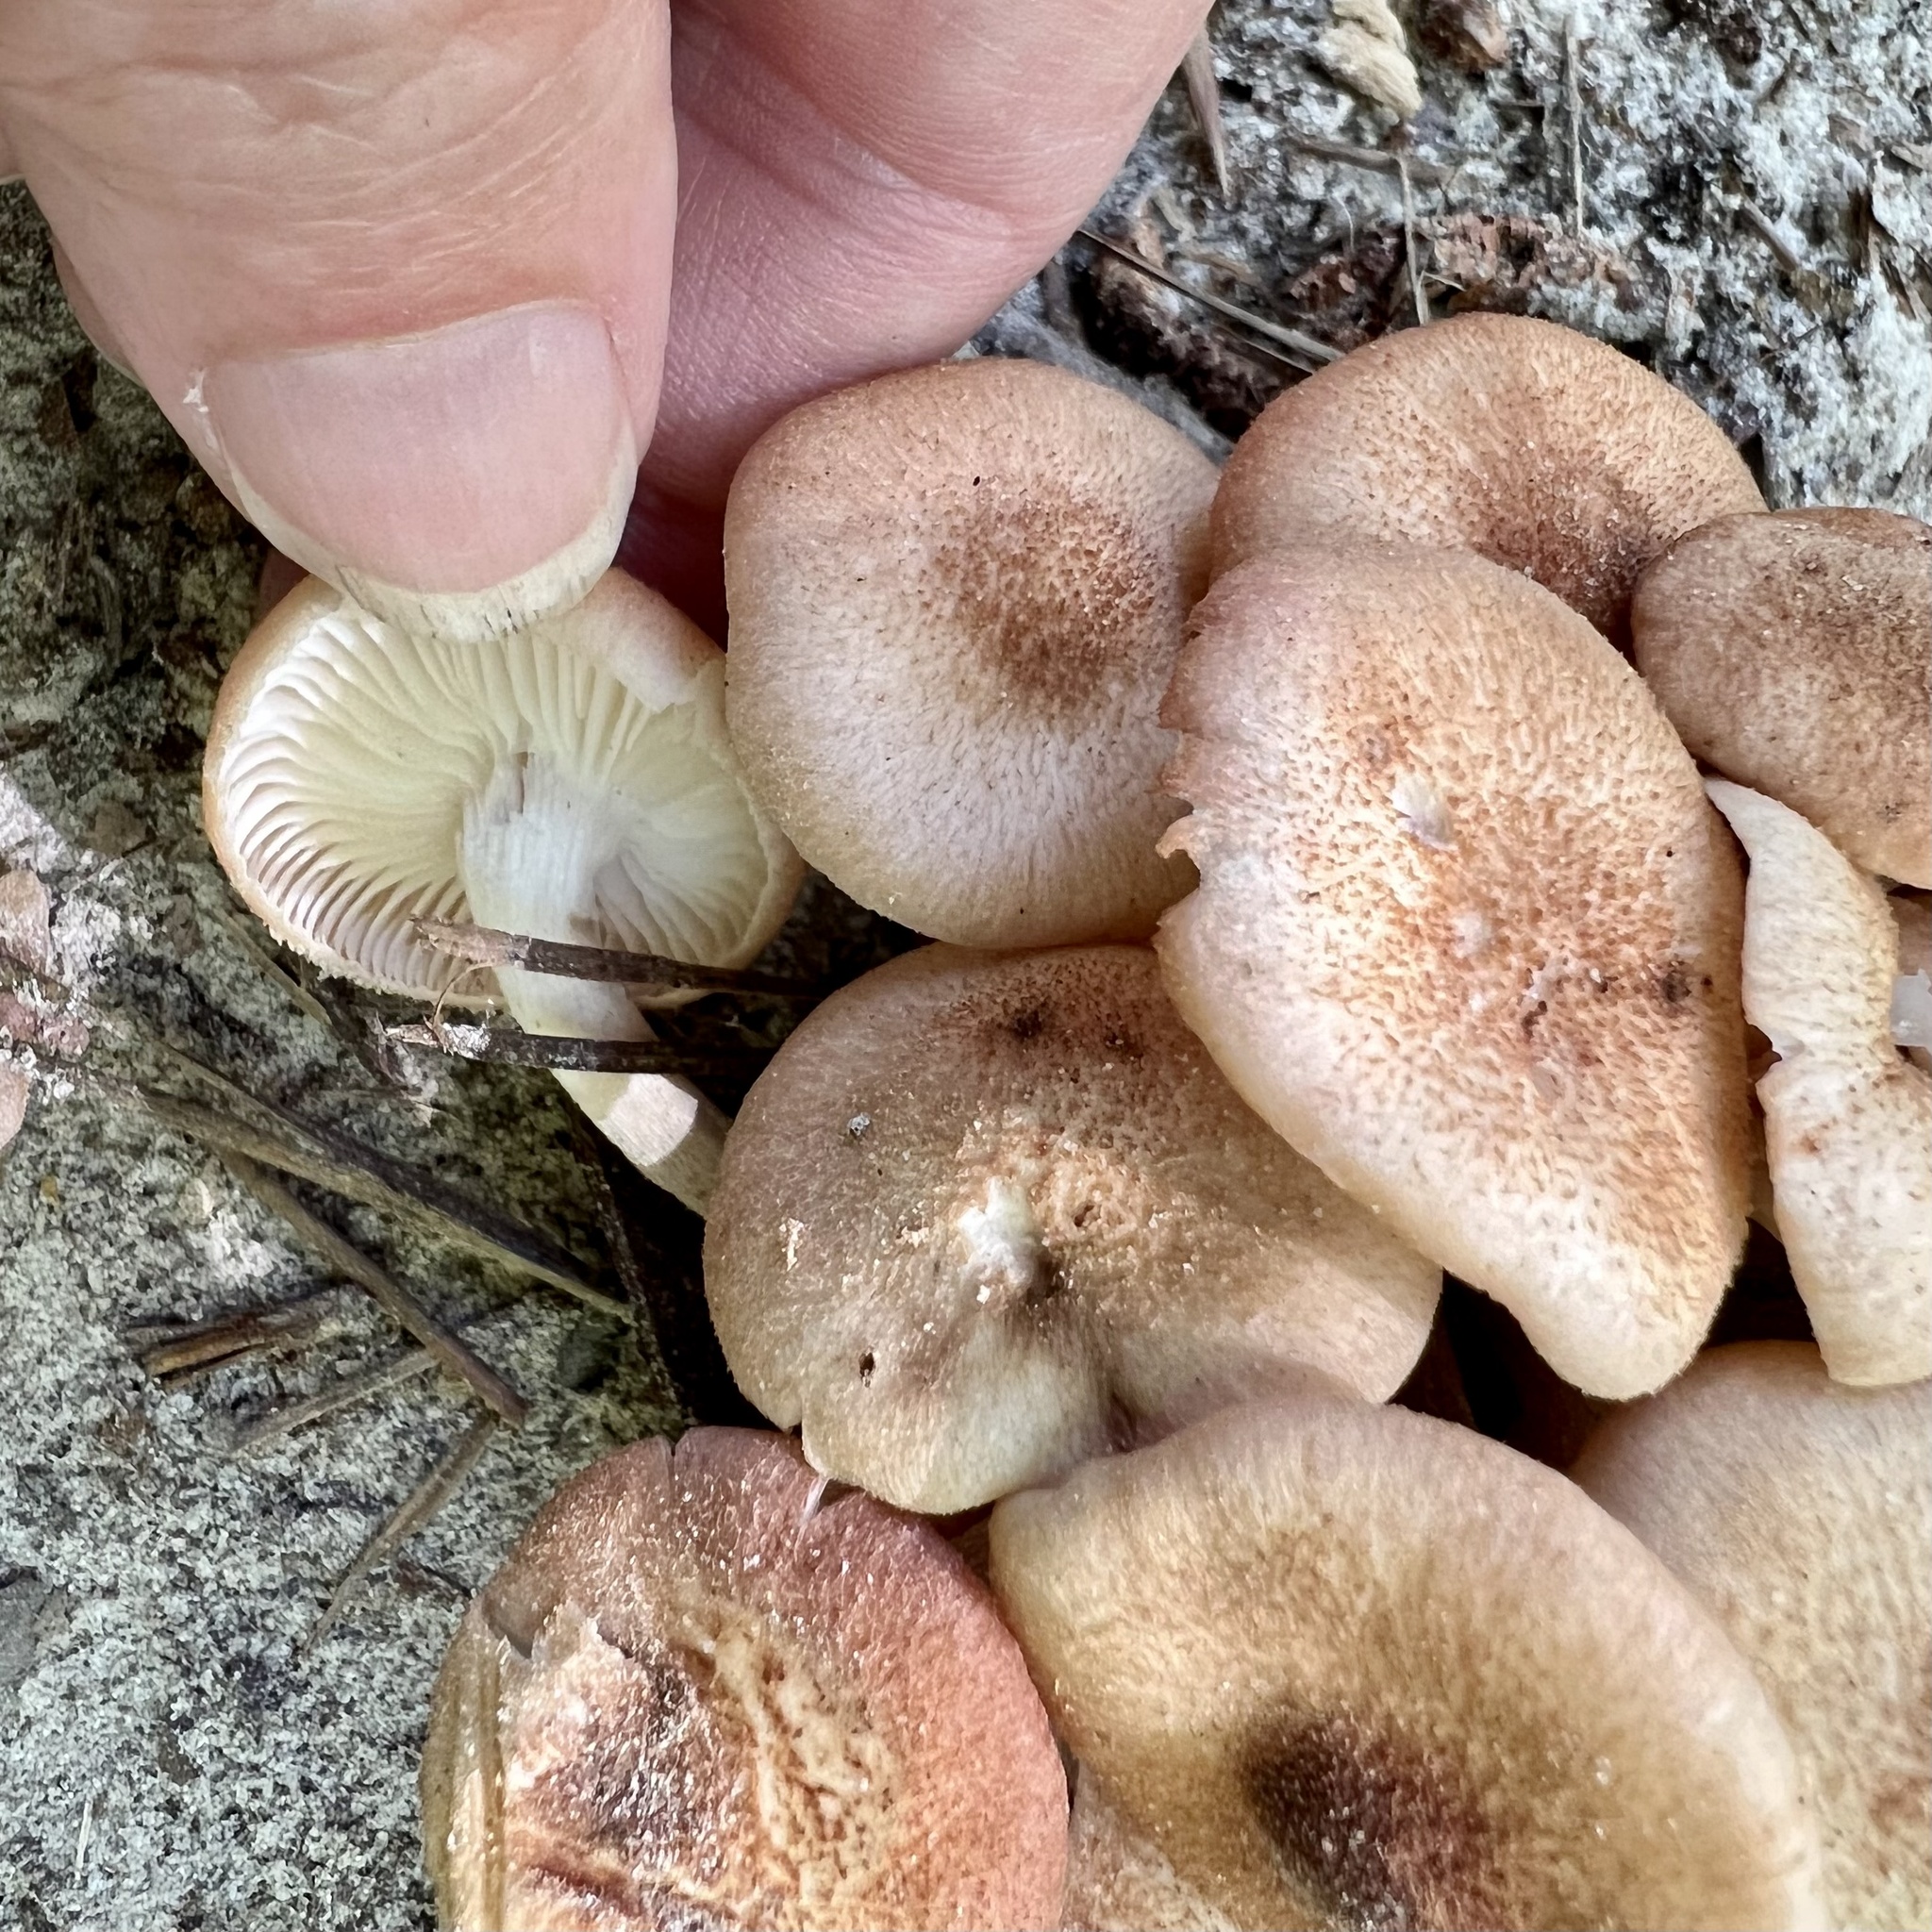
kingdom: Fungi
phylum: Basidiomycota
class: Agaricomycetes
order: Agaricales
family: Physalacriaceae
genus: Desarmillaria
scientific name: Desarmillaria caespitosa
